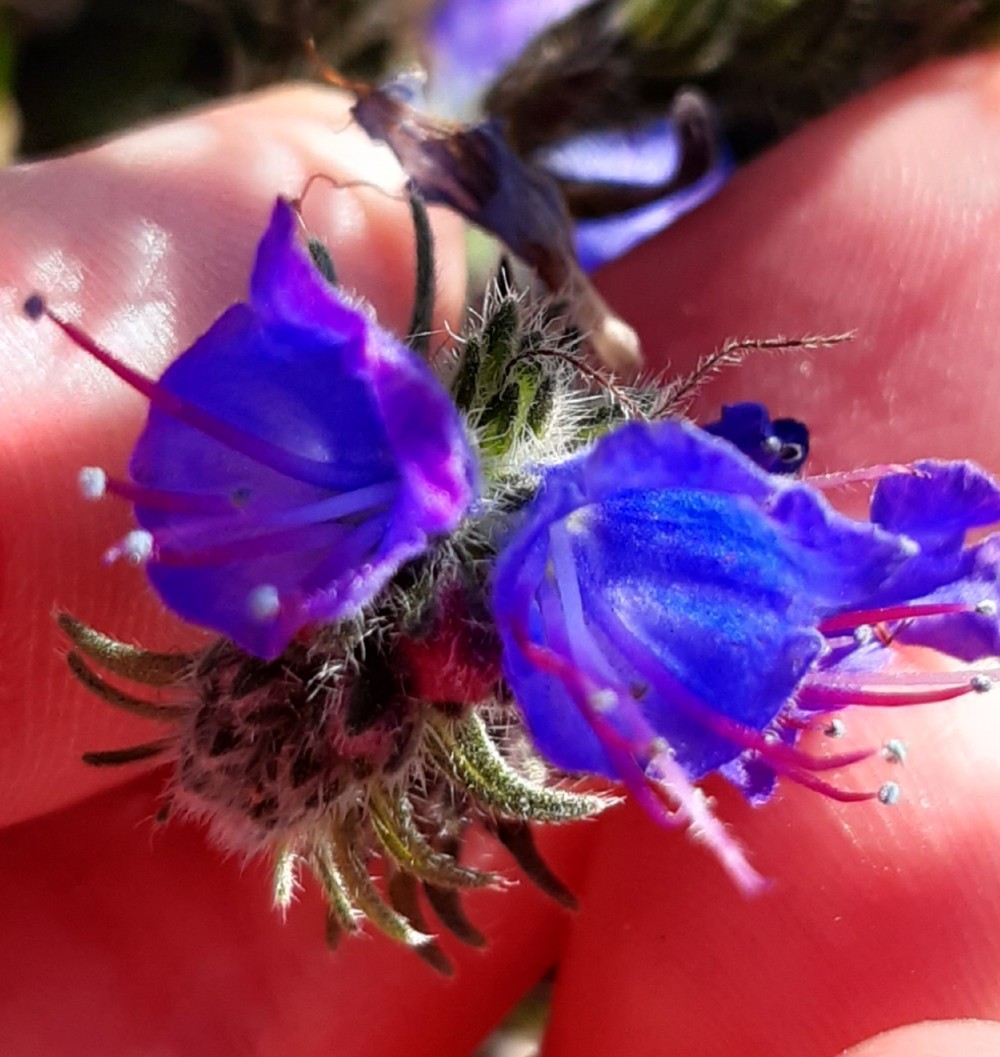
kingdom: Plantae
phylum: Tracheophyta
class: Magnoliopsida
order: Boraginales
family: Boraginaceae
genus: Echium
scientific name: Echium vulgare
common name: Common viper's bugloss
